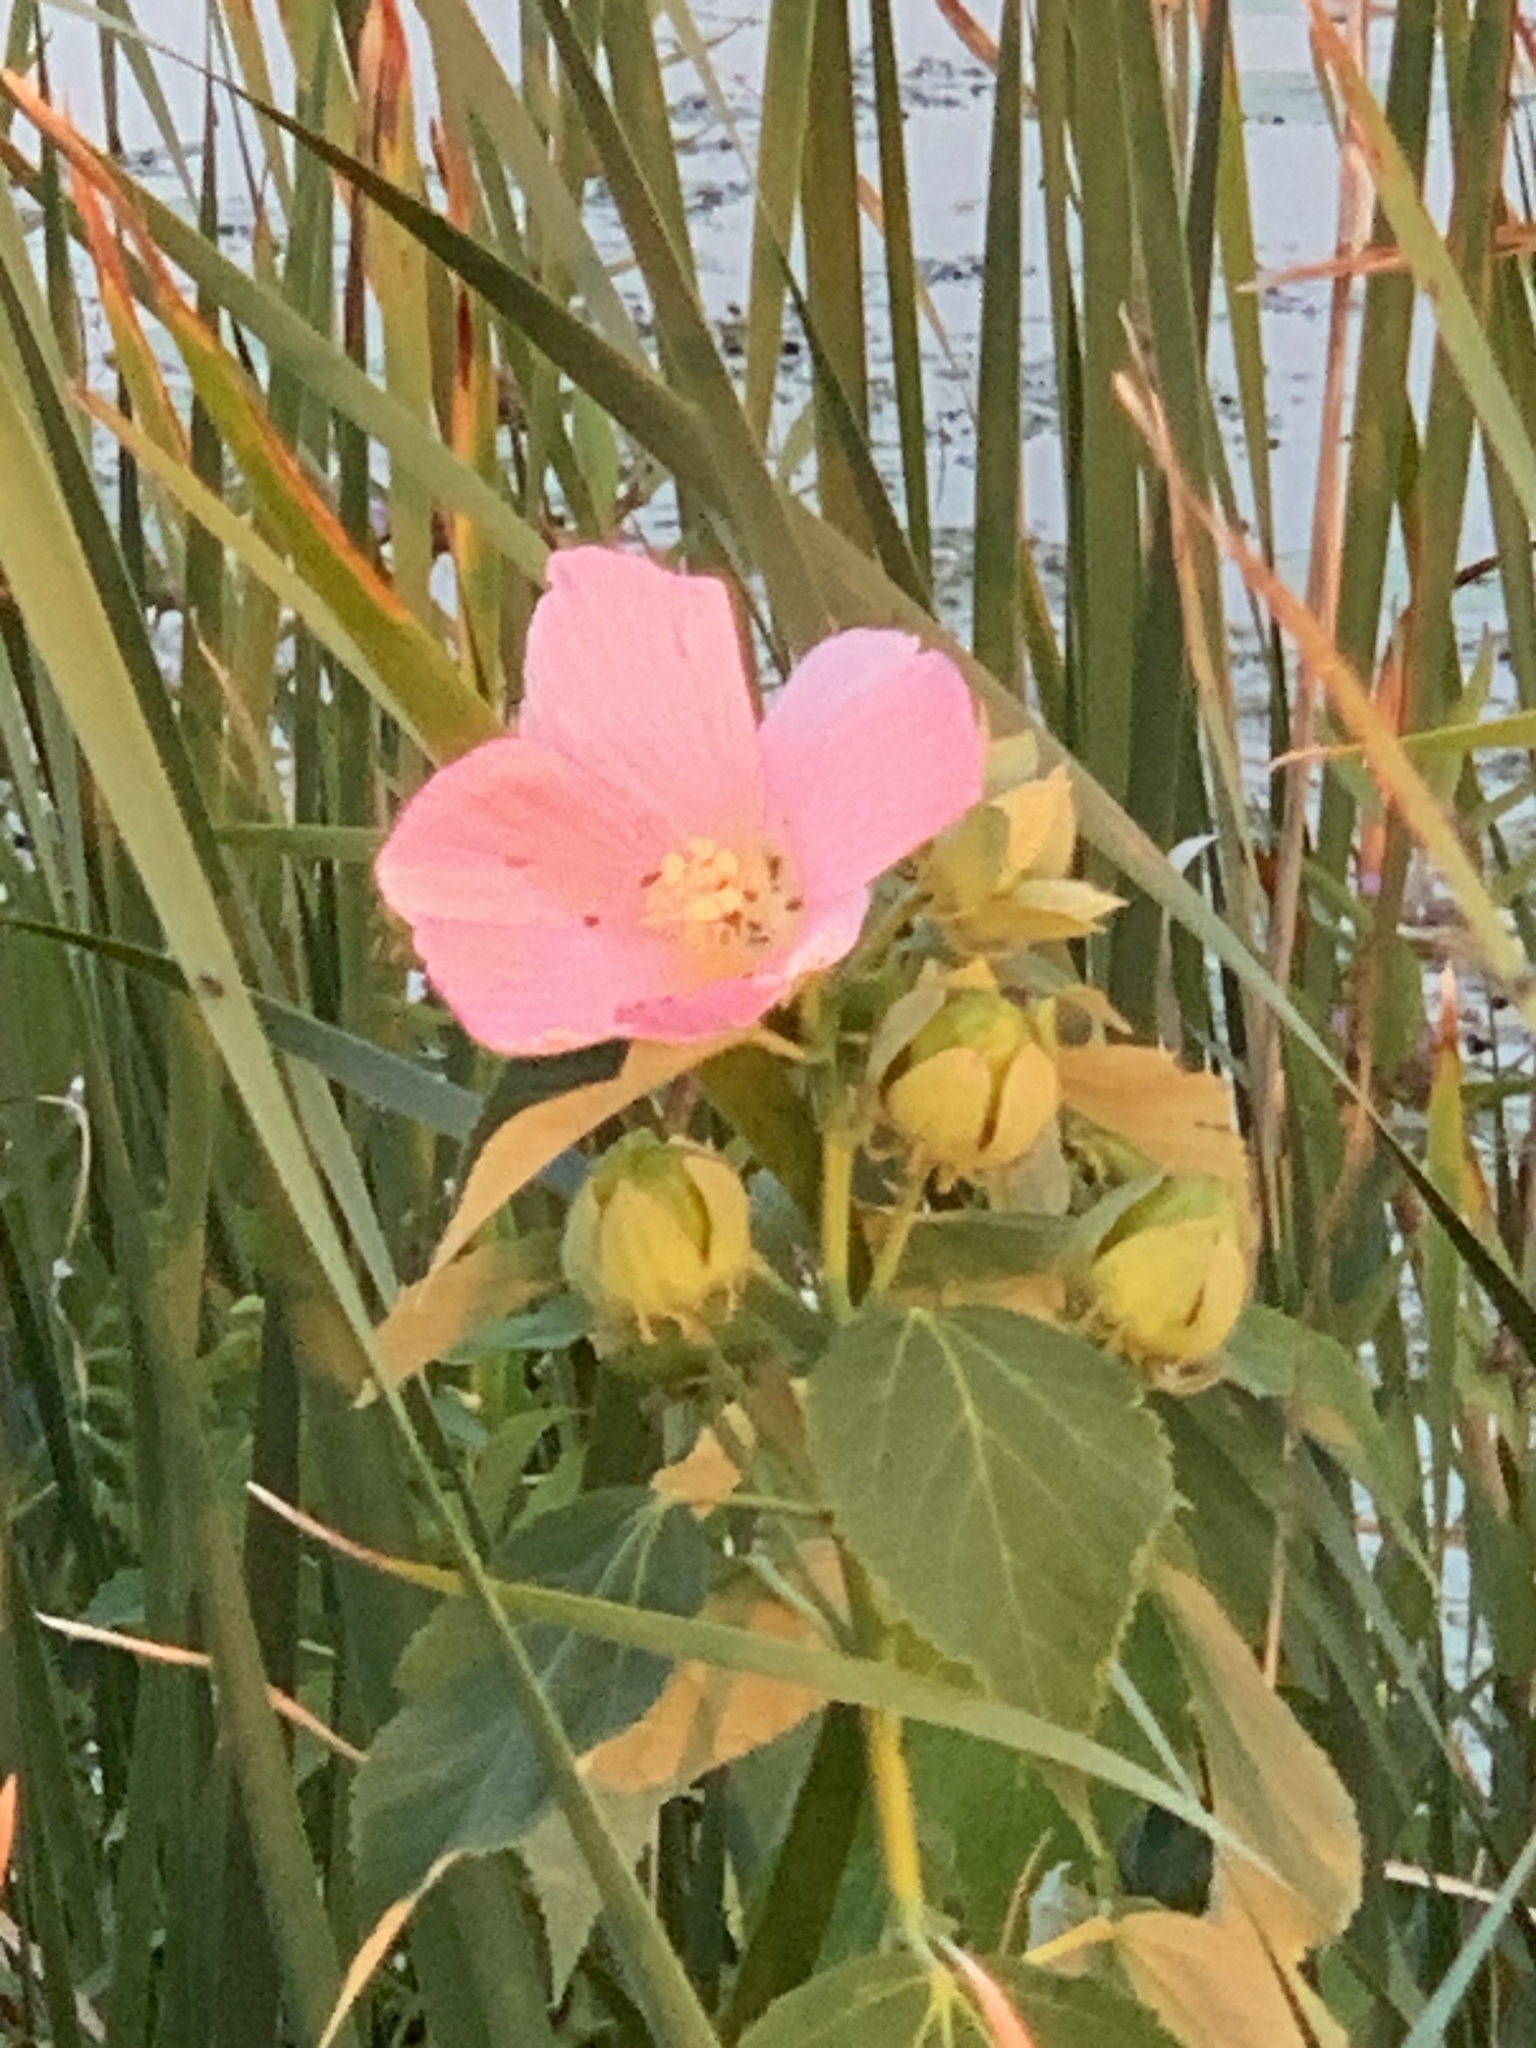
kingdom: Plantae
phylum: Tracheophyta
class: Magnoliopsida
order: Malvales
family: Malvaceae
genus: Hibiscus
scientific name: Hibiscus moscheutos
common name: Common rose-mallow
